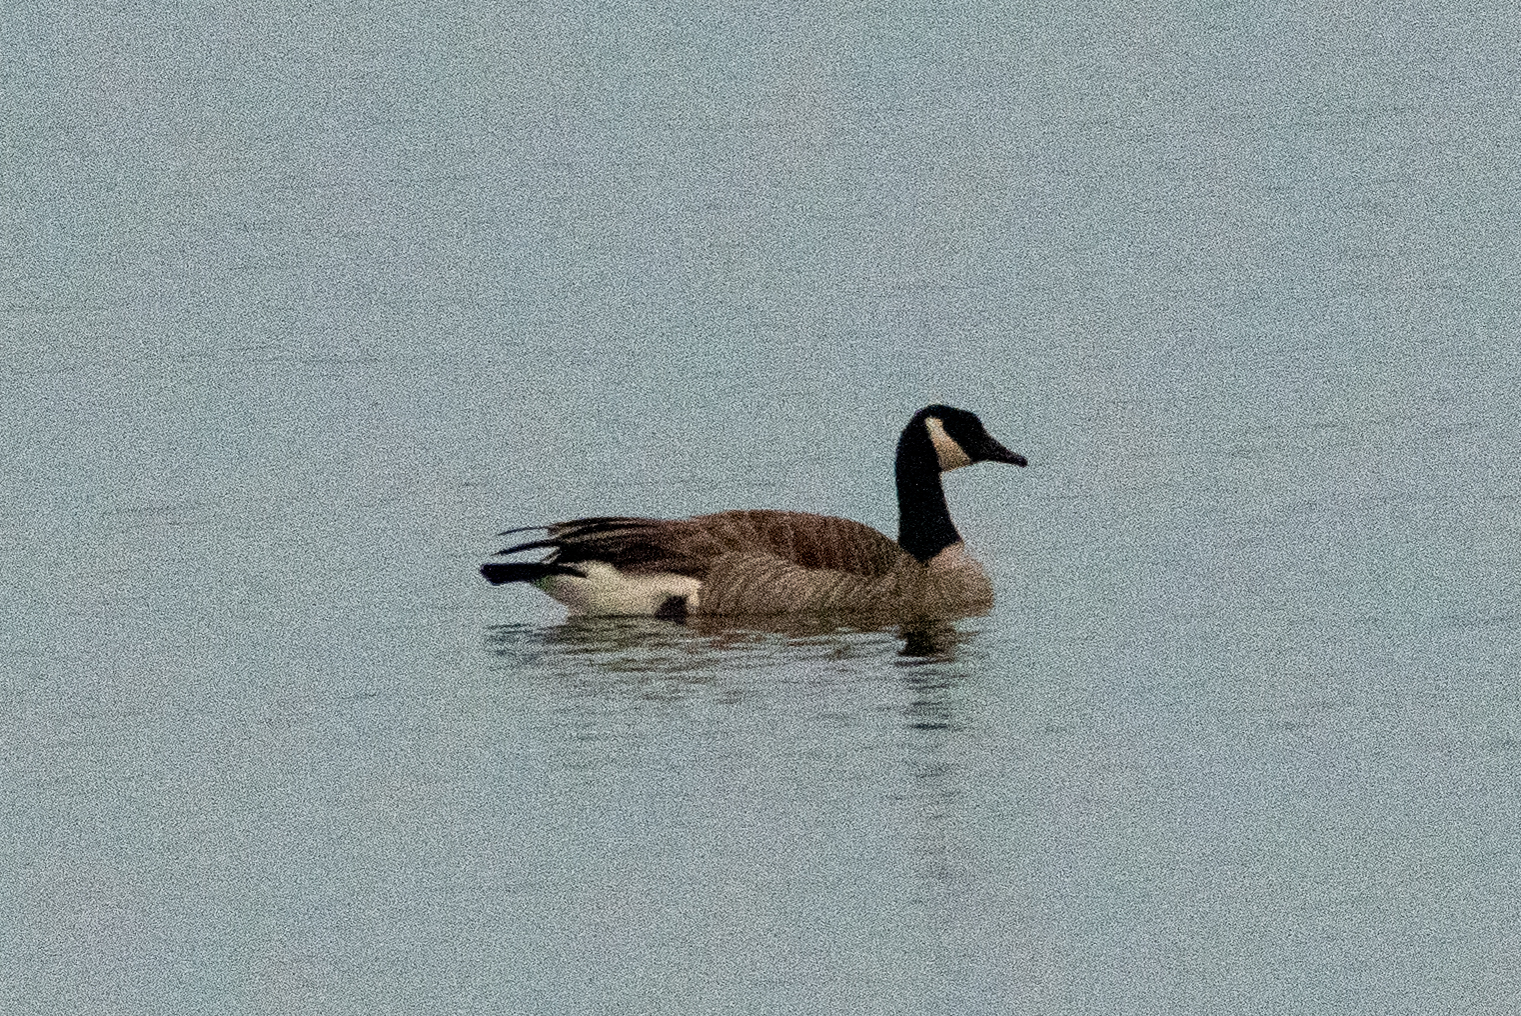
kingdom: Animalia
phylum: Chordata
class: Aves
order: Anseriformes
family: Anatidae
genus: Branta
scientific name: Branta canadensis
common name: Canada goose
